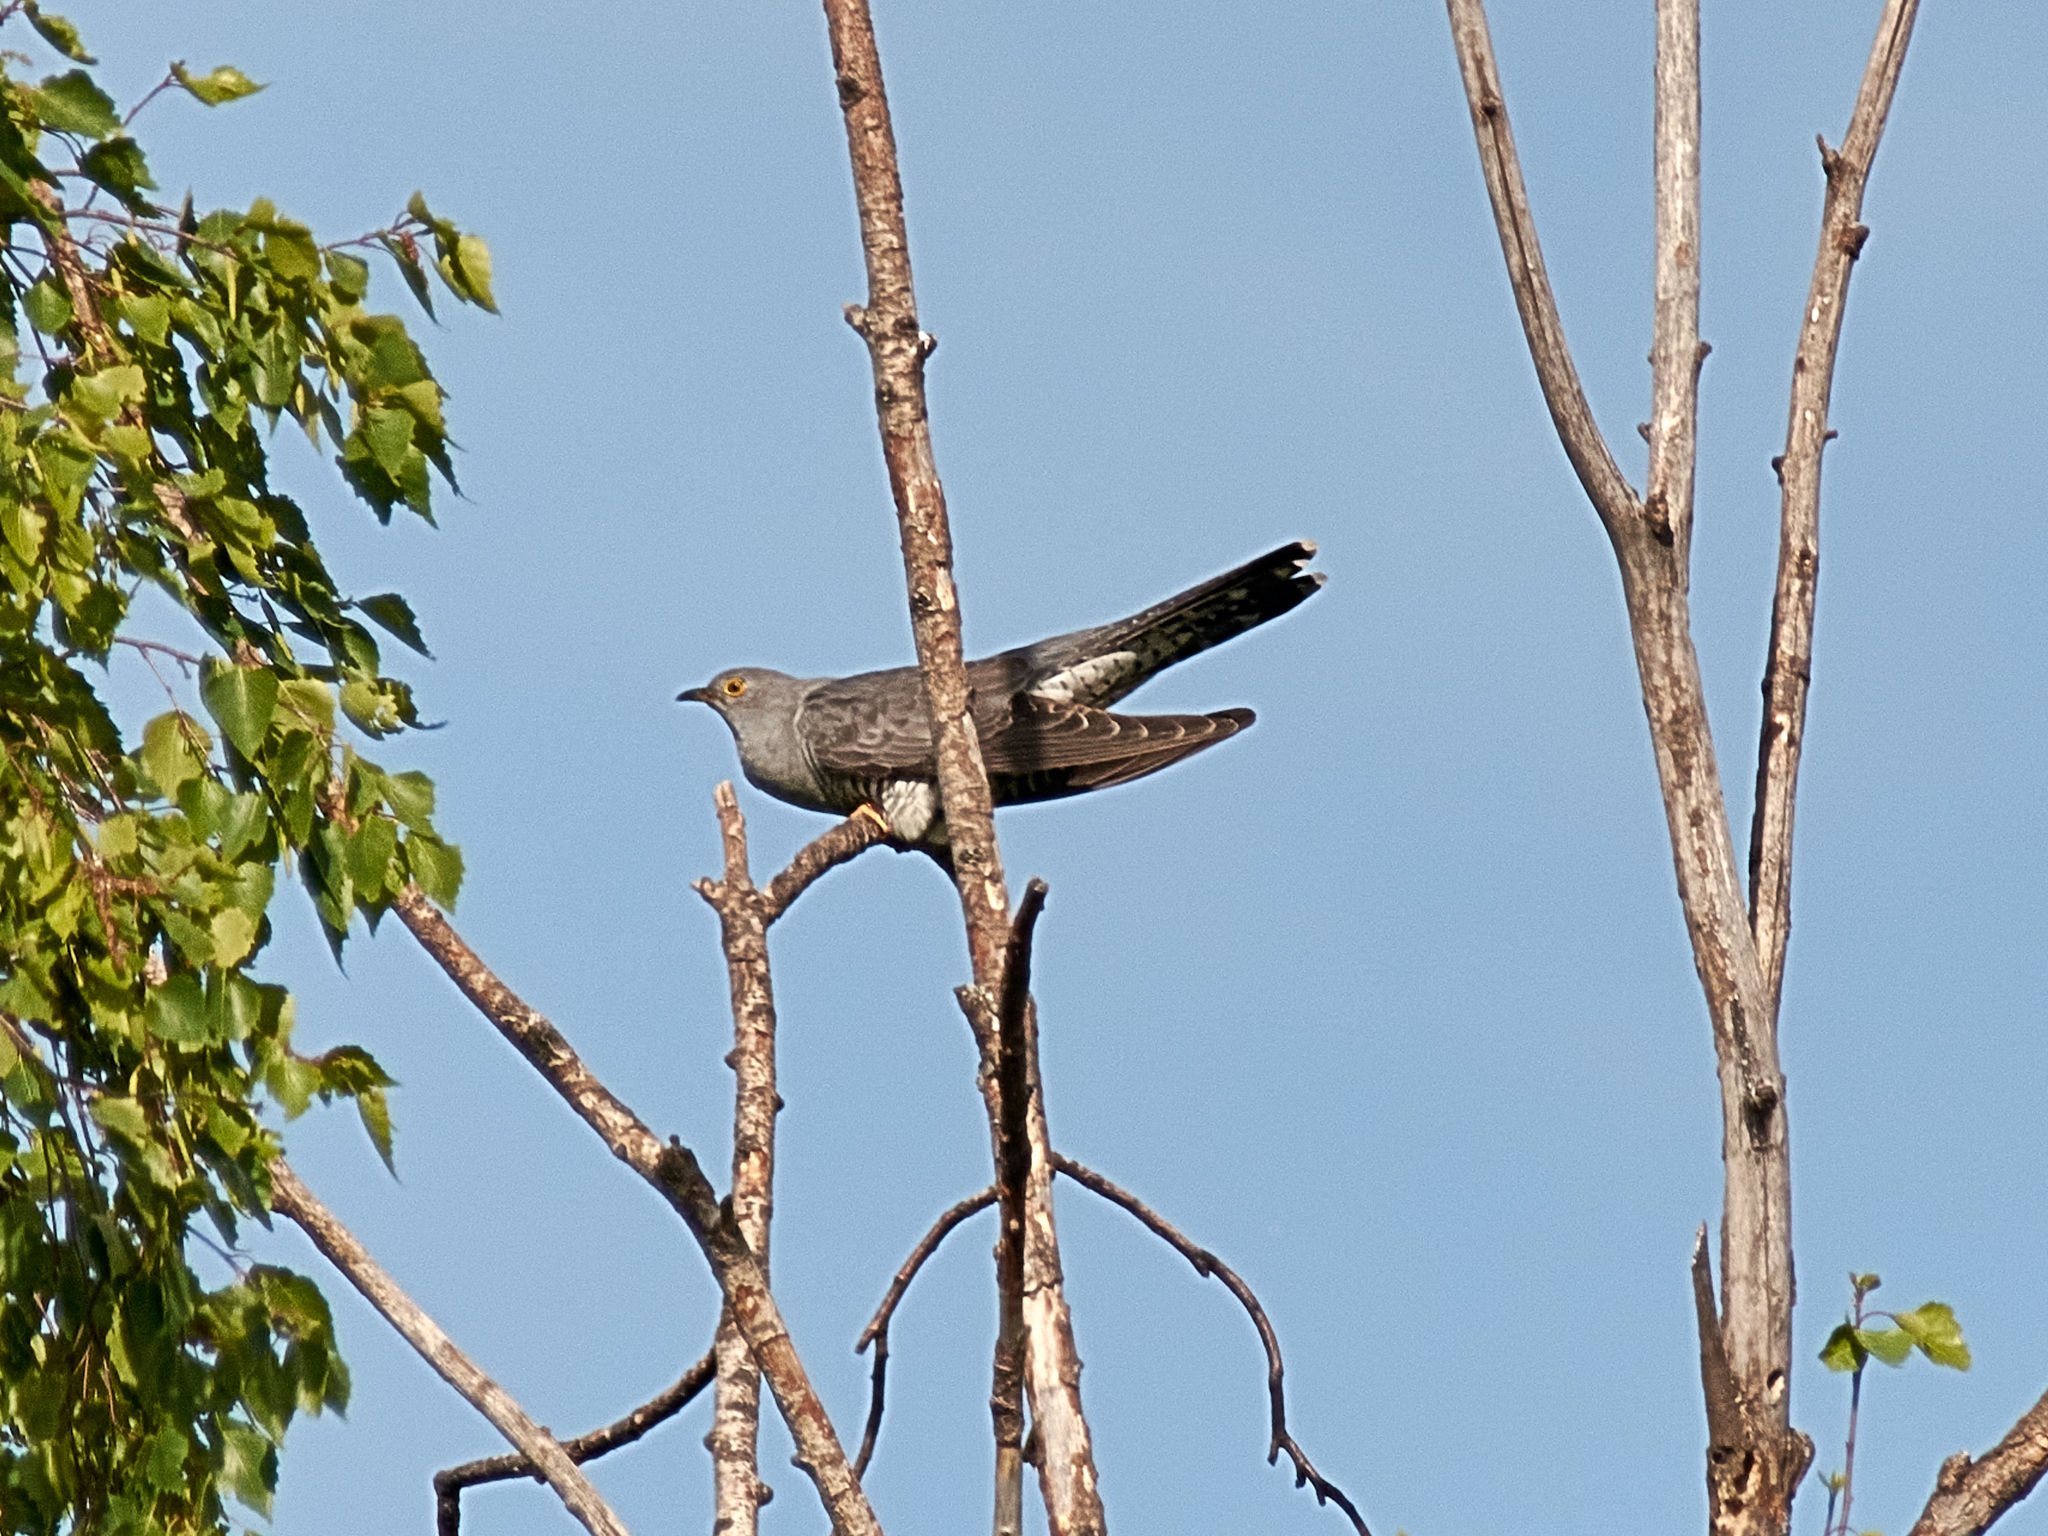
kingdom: Animalia
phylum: Chordata
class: Aves
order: Cuculiformes
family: Cuculidae
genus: Cuculus
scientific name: Cuculus canorus
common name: Common cuckoo
